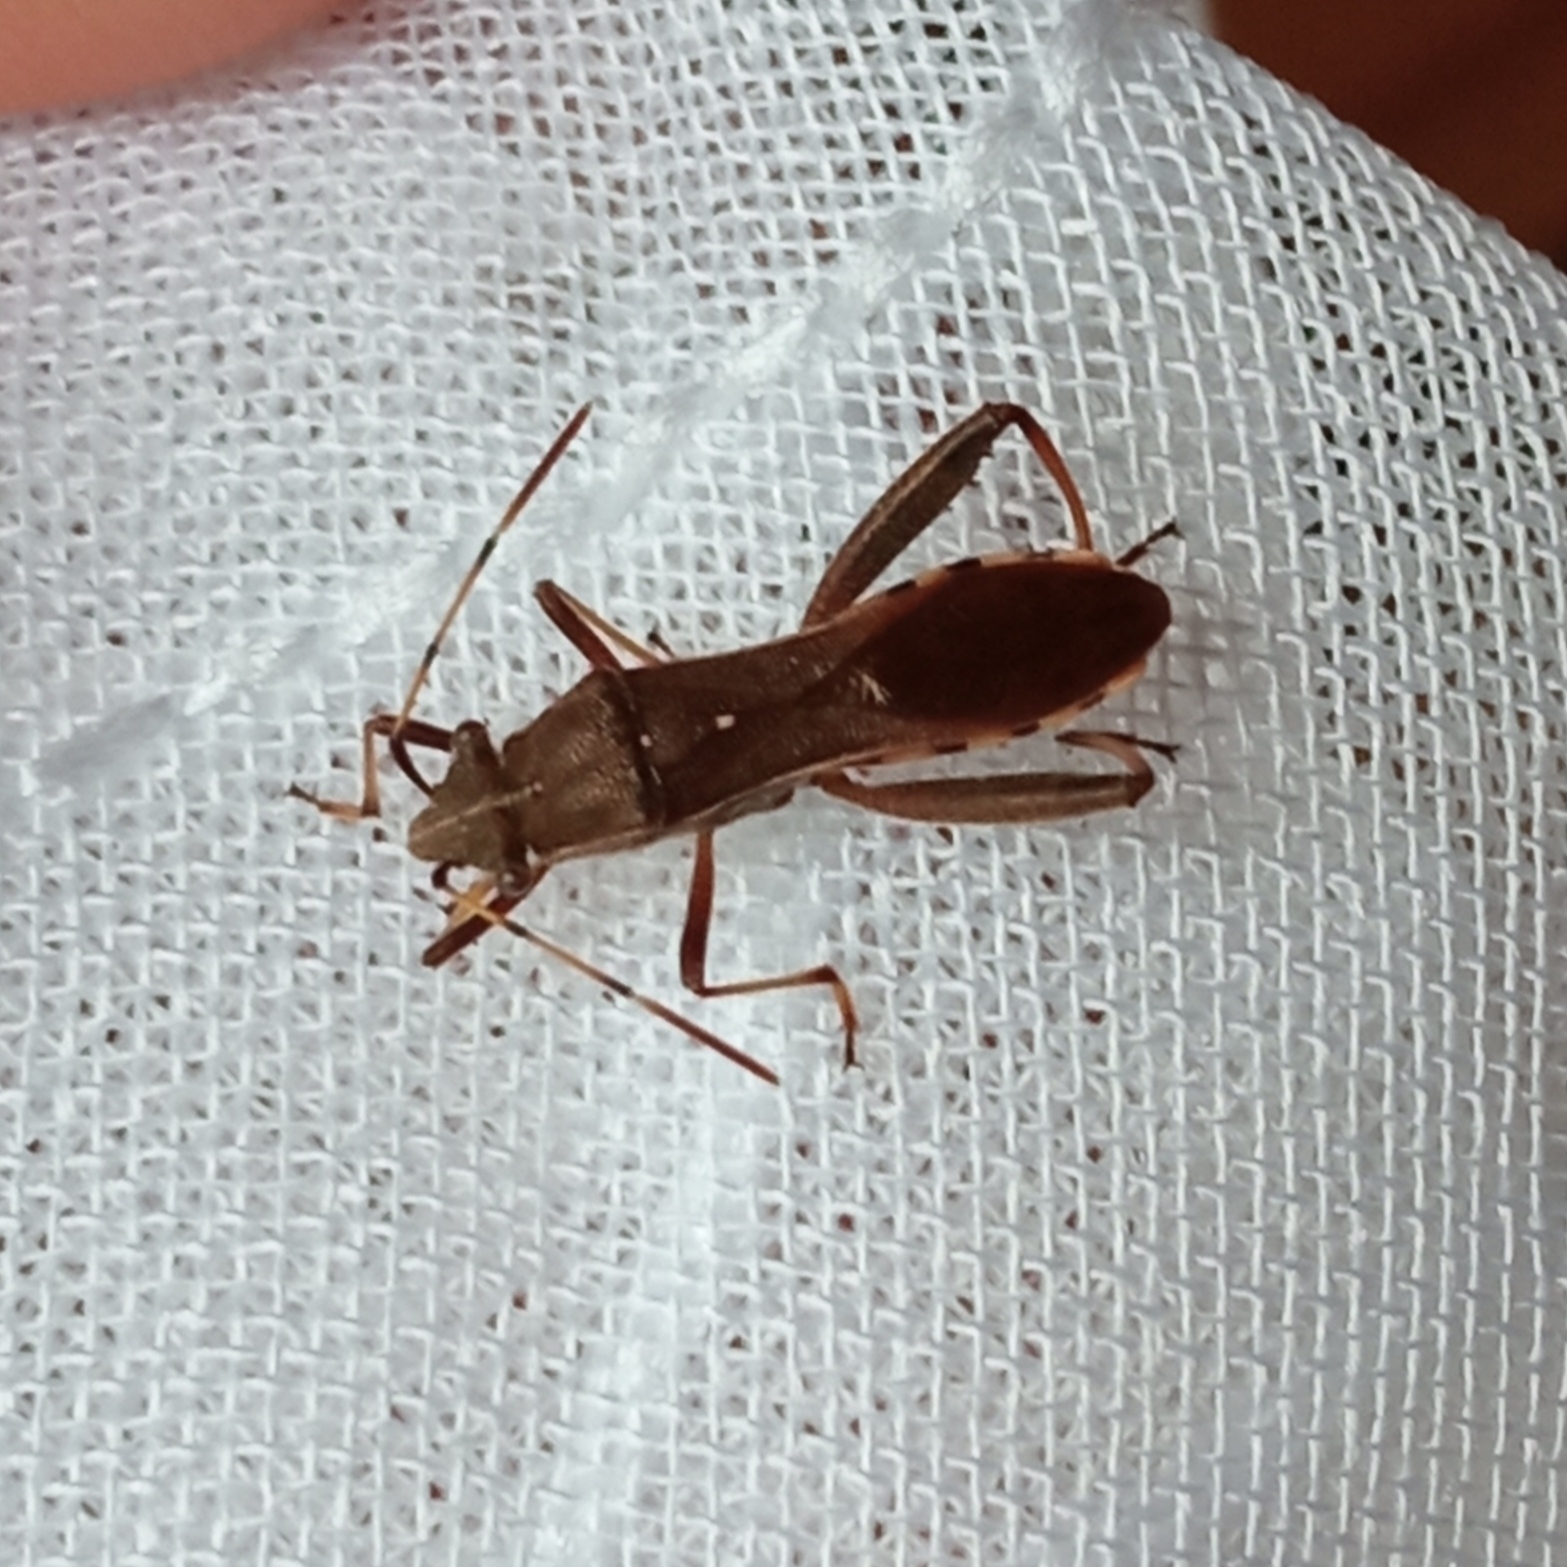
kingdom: Animalia
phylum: Arthropoda
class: Insecta
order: Hemiptera
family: Alydidae
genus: Camptopus
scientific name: Camptopus lateralis
